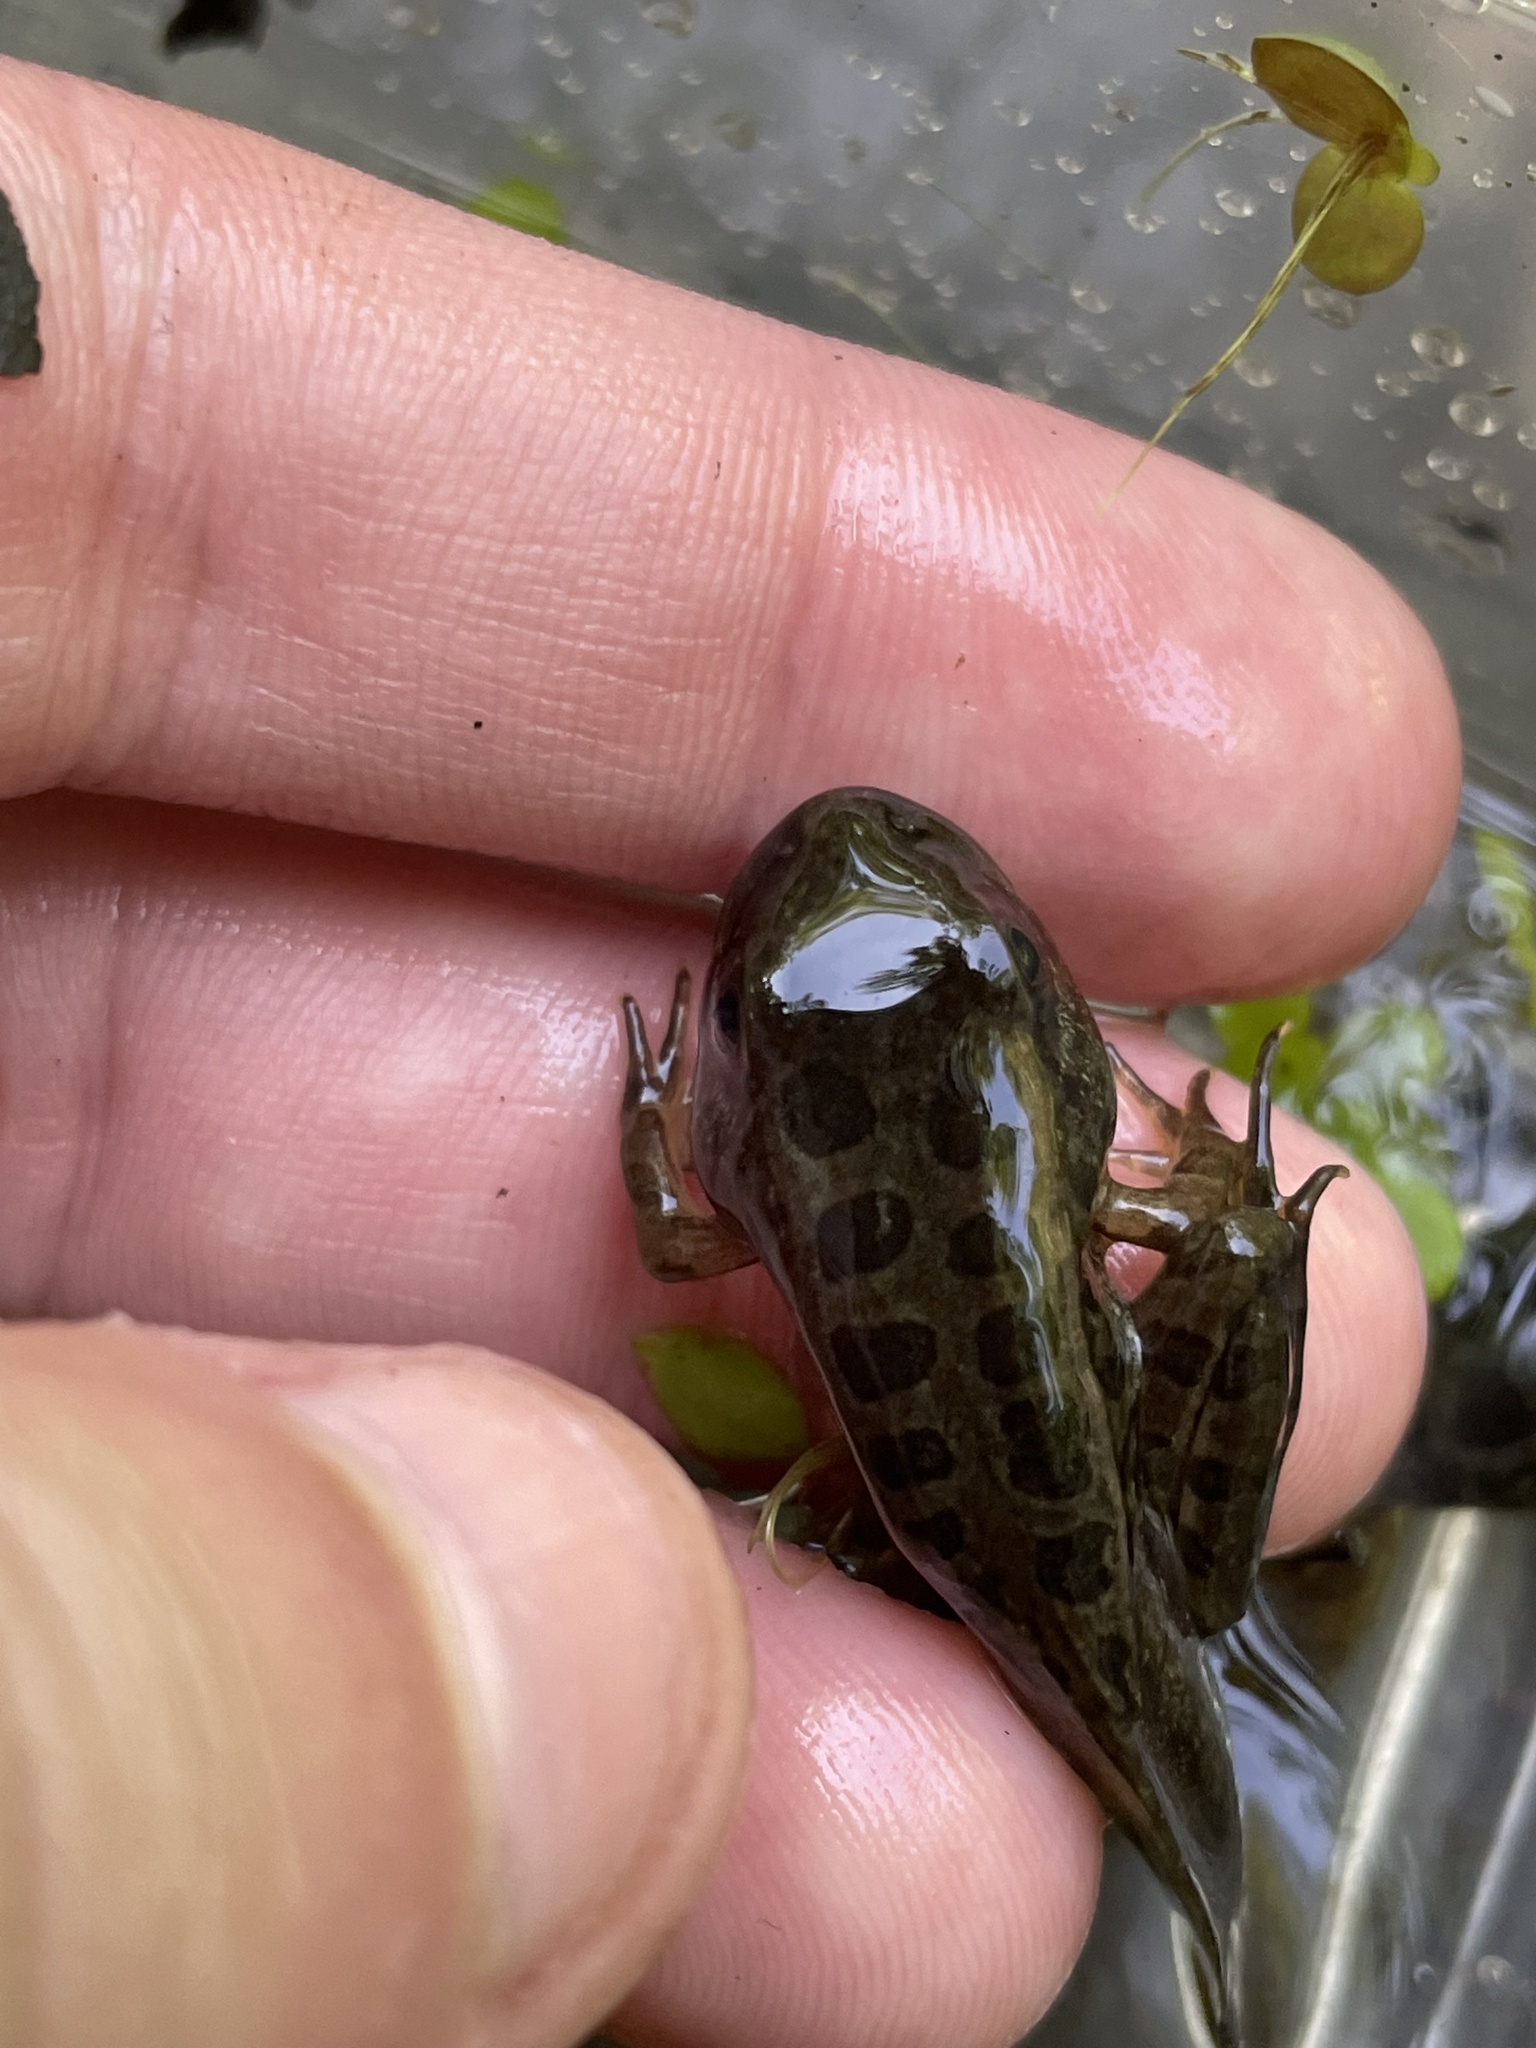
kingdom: Animalia
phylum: Chordata
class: Amphibia
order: Anura
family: Ranidae
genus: Lithobates
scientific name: Lithobates palustris
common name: Pickerel frog
